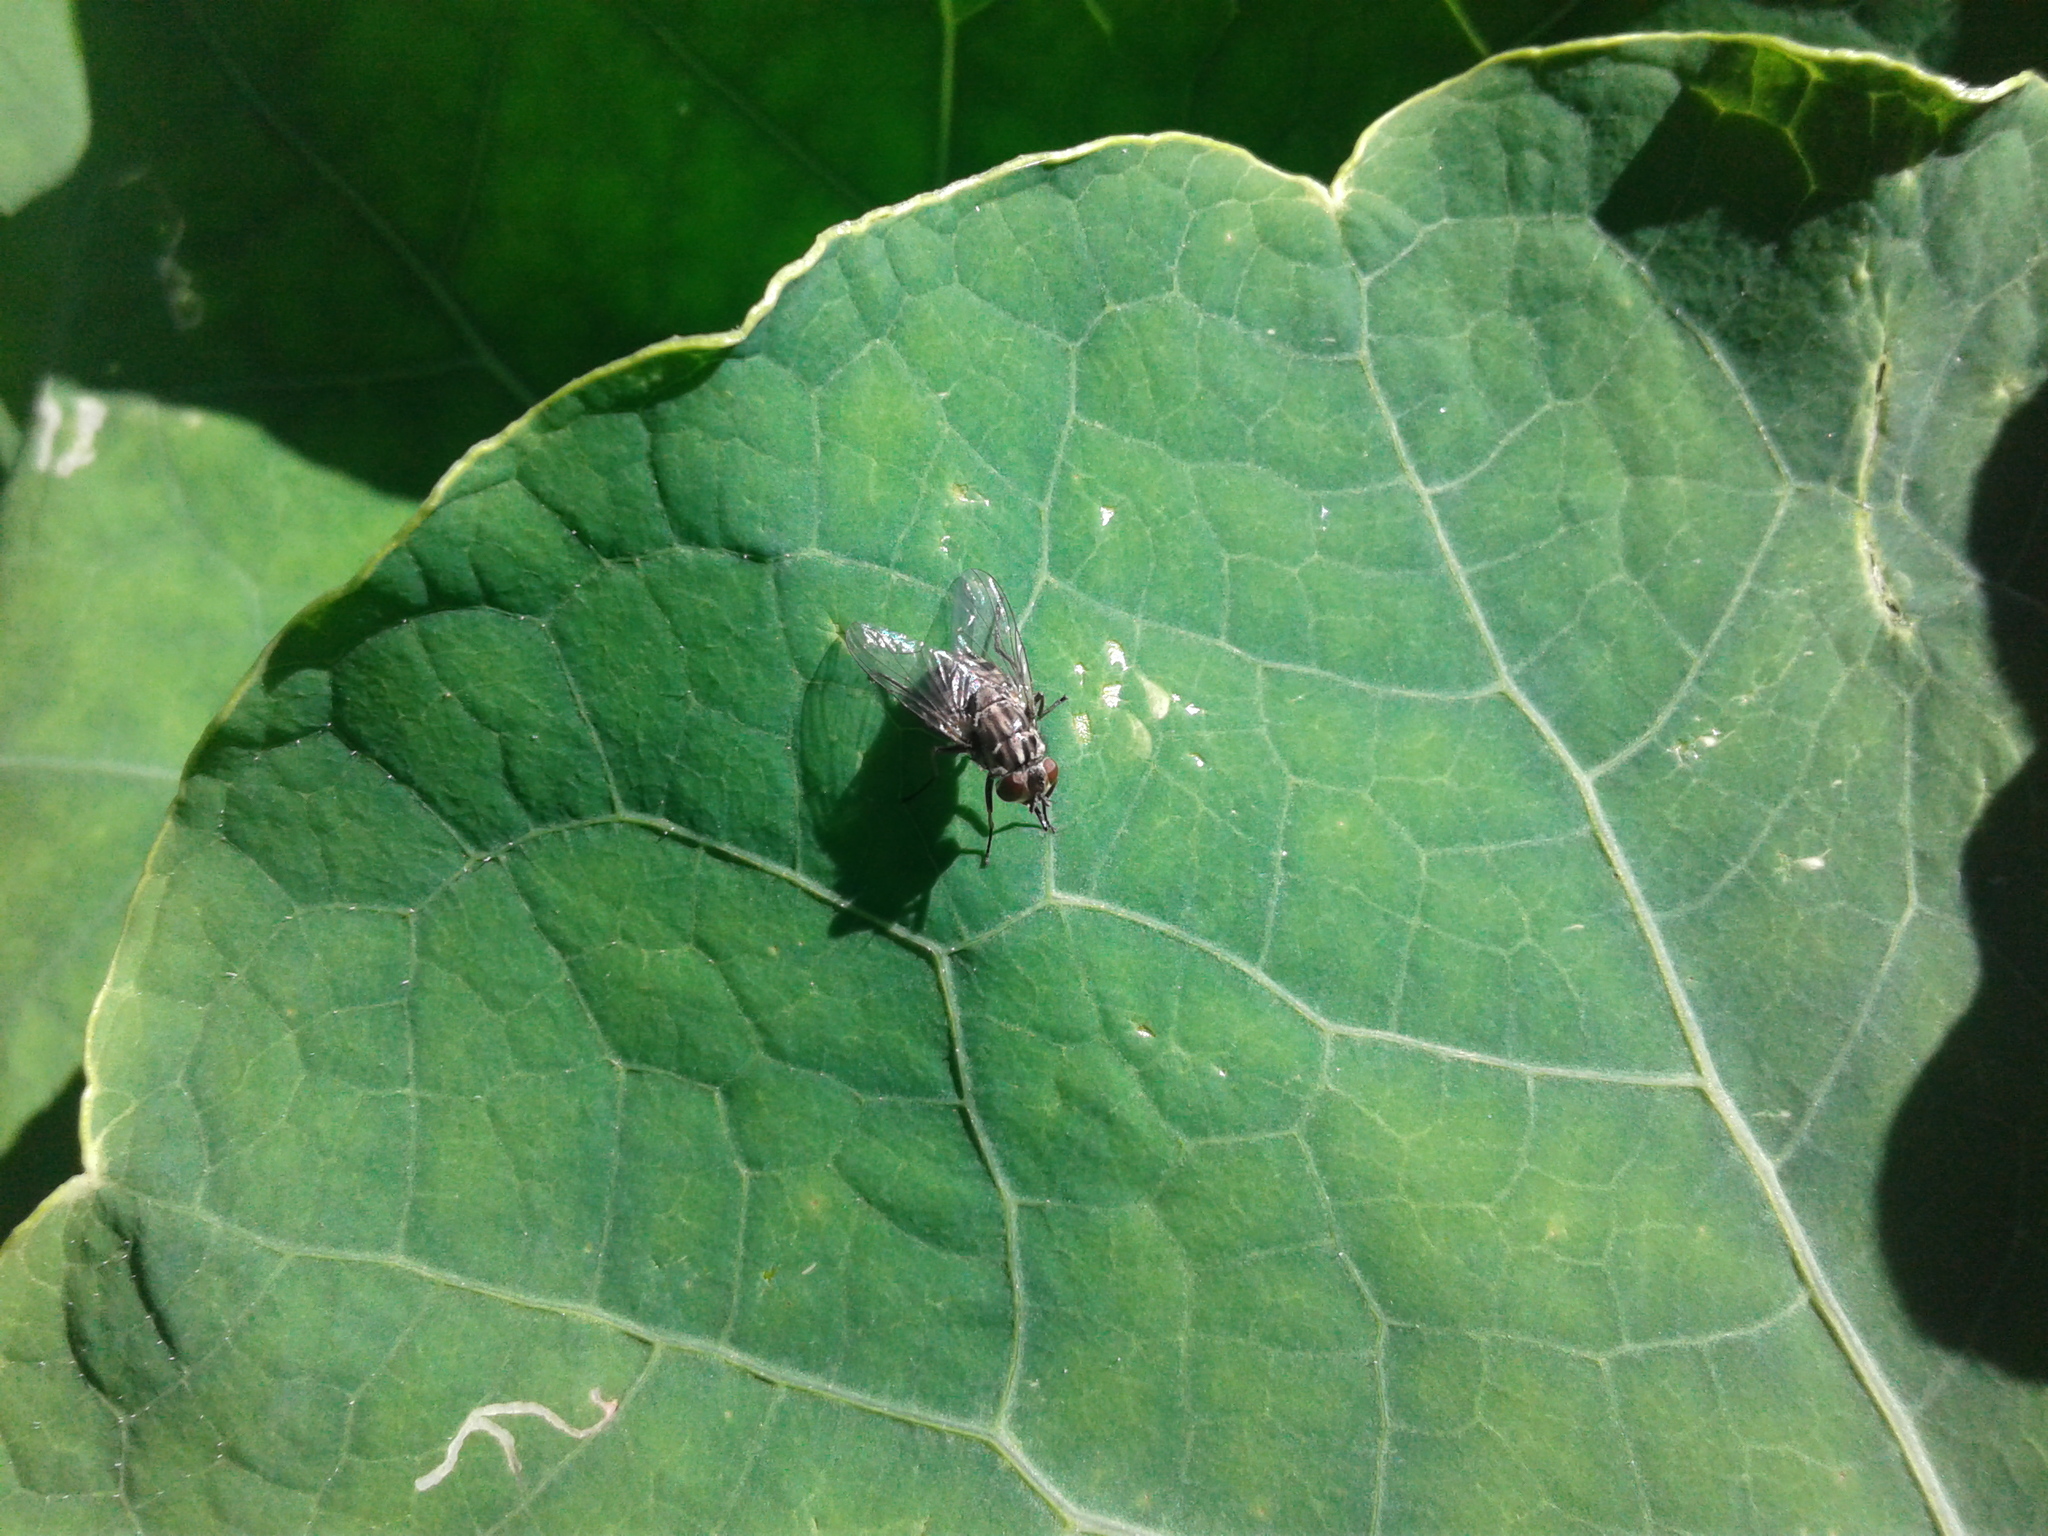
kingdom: Animalia
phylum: Arthropoda
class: Insecta
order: Diptera
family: Muscidae
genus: Stomoxys
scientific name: Stomoxys calcitrans
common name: Stable fly
